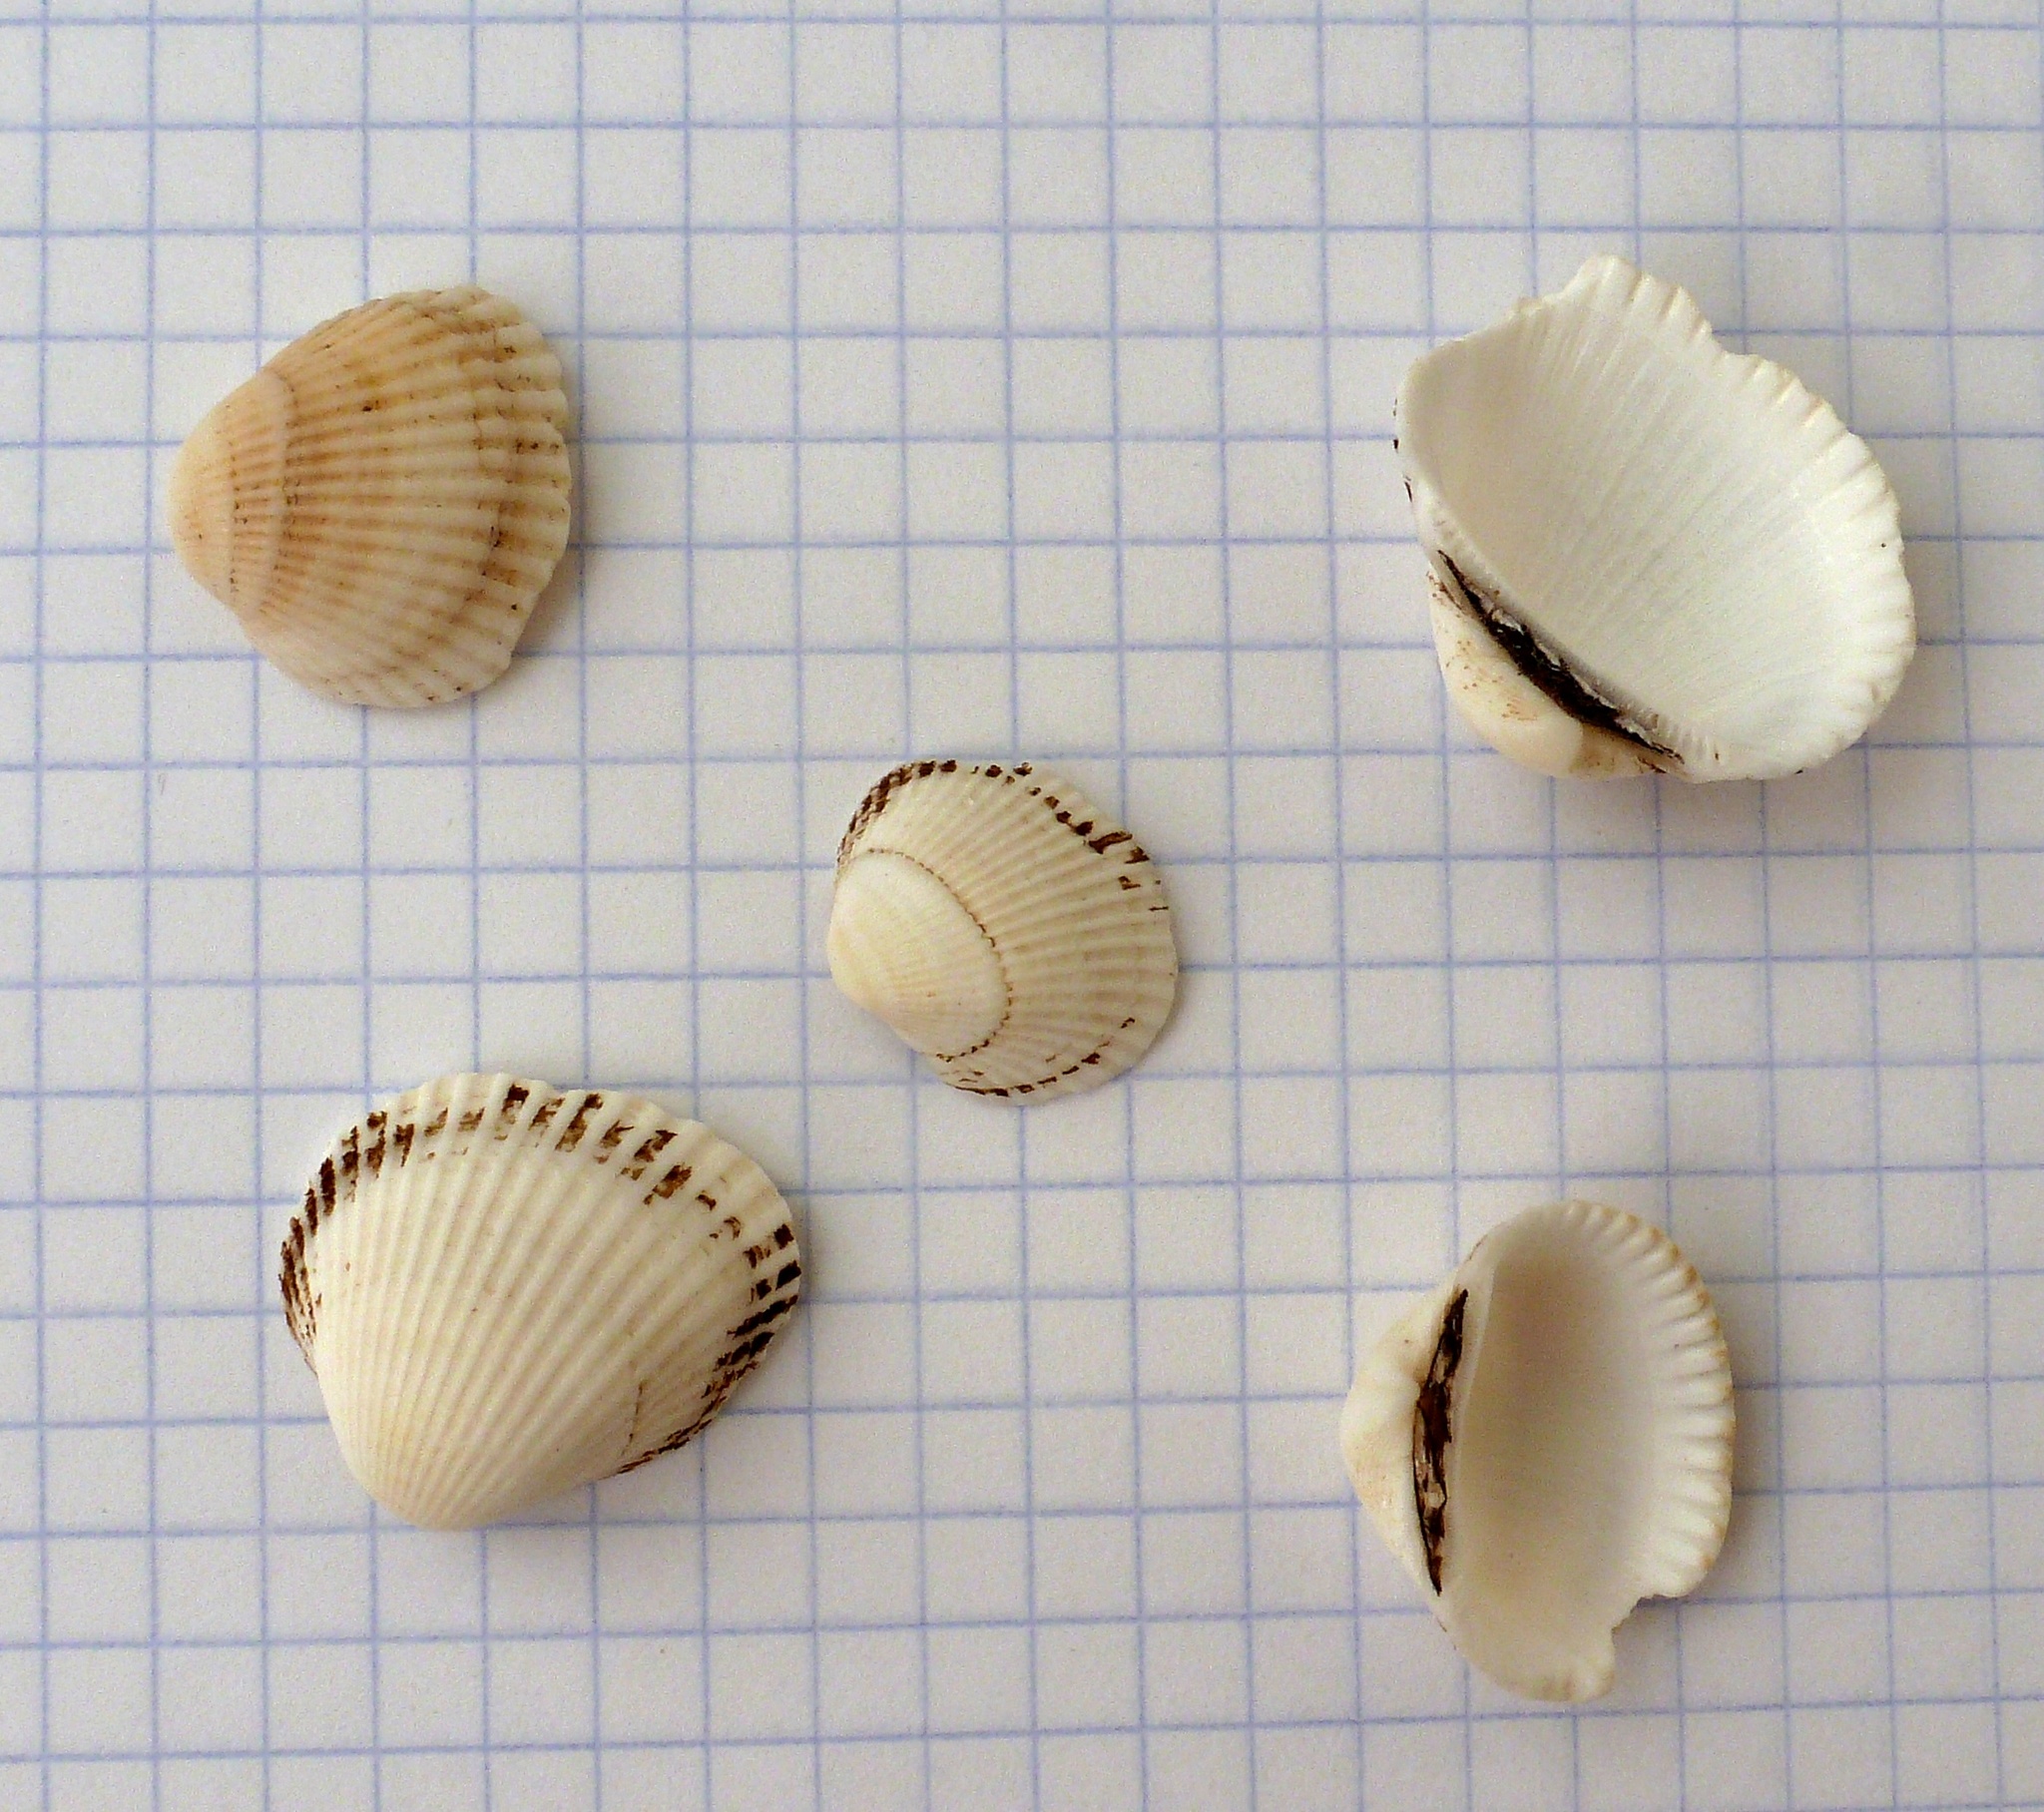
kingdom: Animalia
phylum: Mollusca
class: Bivalvia
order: Arcida
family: Arcidae
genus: Anadara
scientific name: Anadara kagoshimensis
